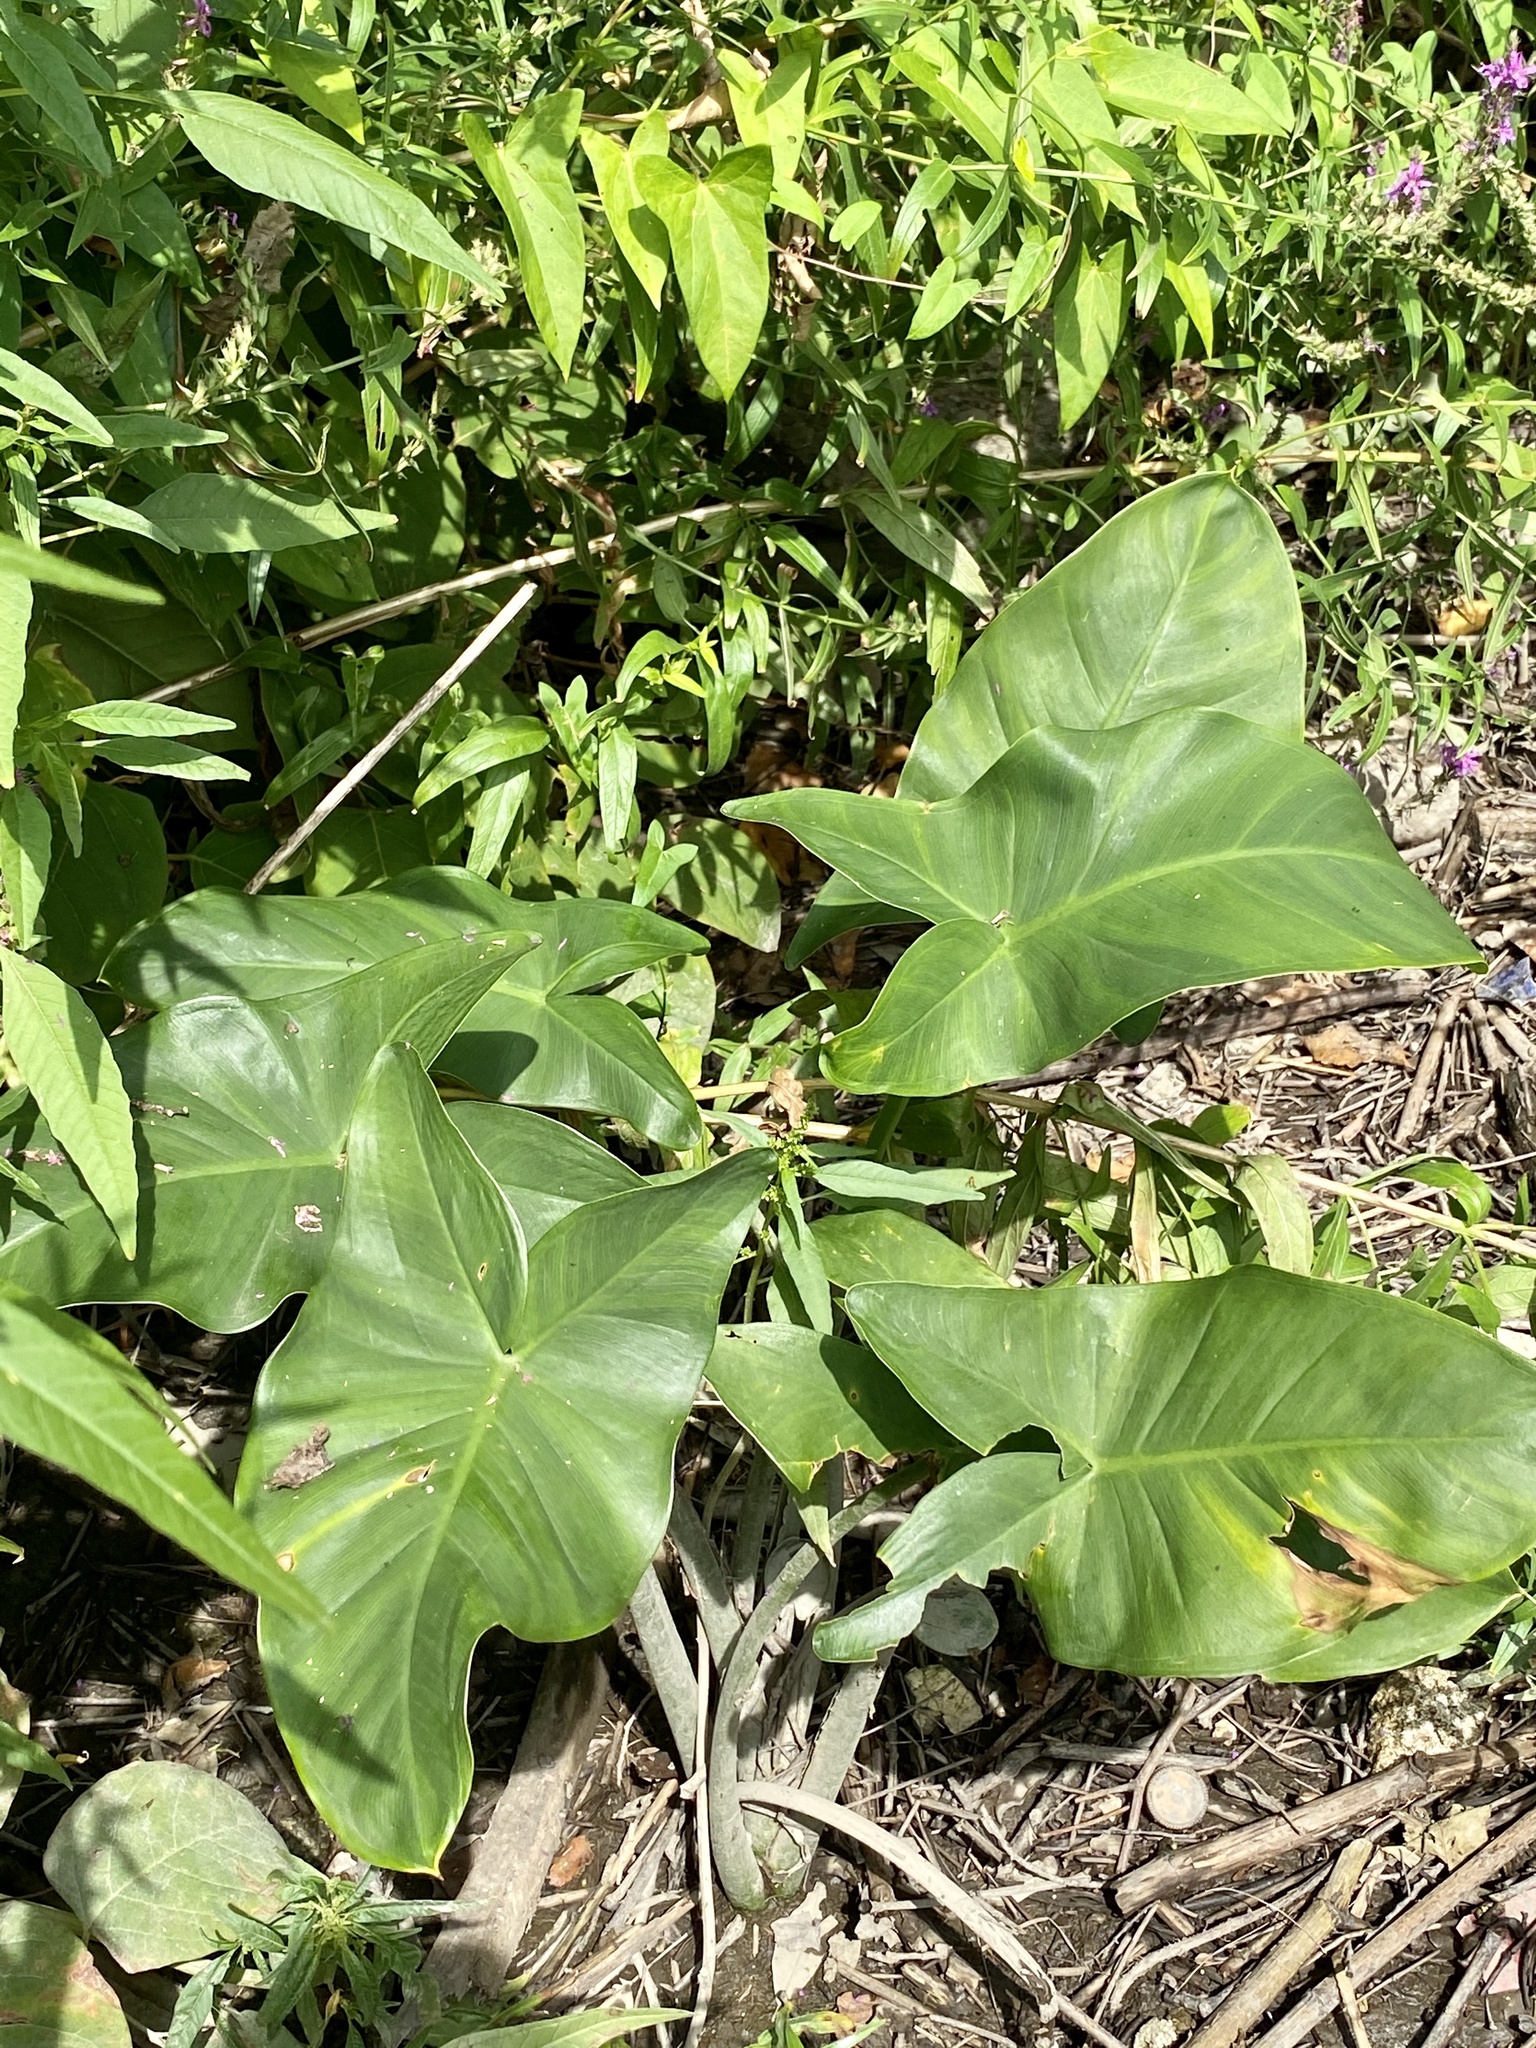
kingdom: Plantae
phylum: Tracheophyta
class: Liliopsida
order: Alismatales
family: Araceae
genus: Peltandra
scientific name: Peltandra virginica
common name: Arrow arum
